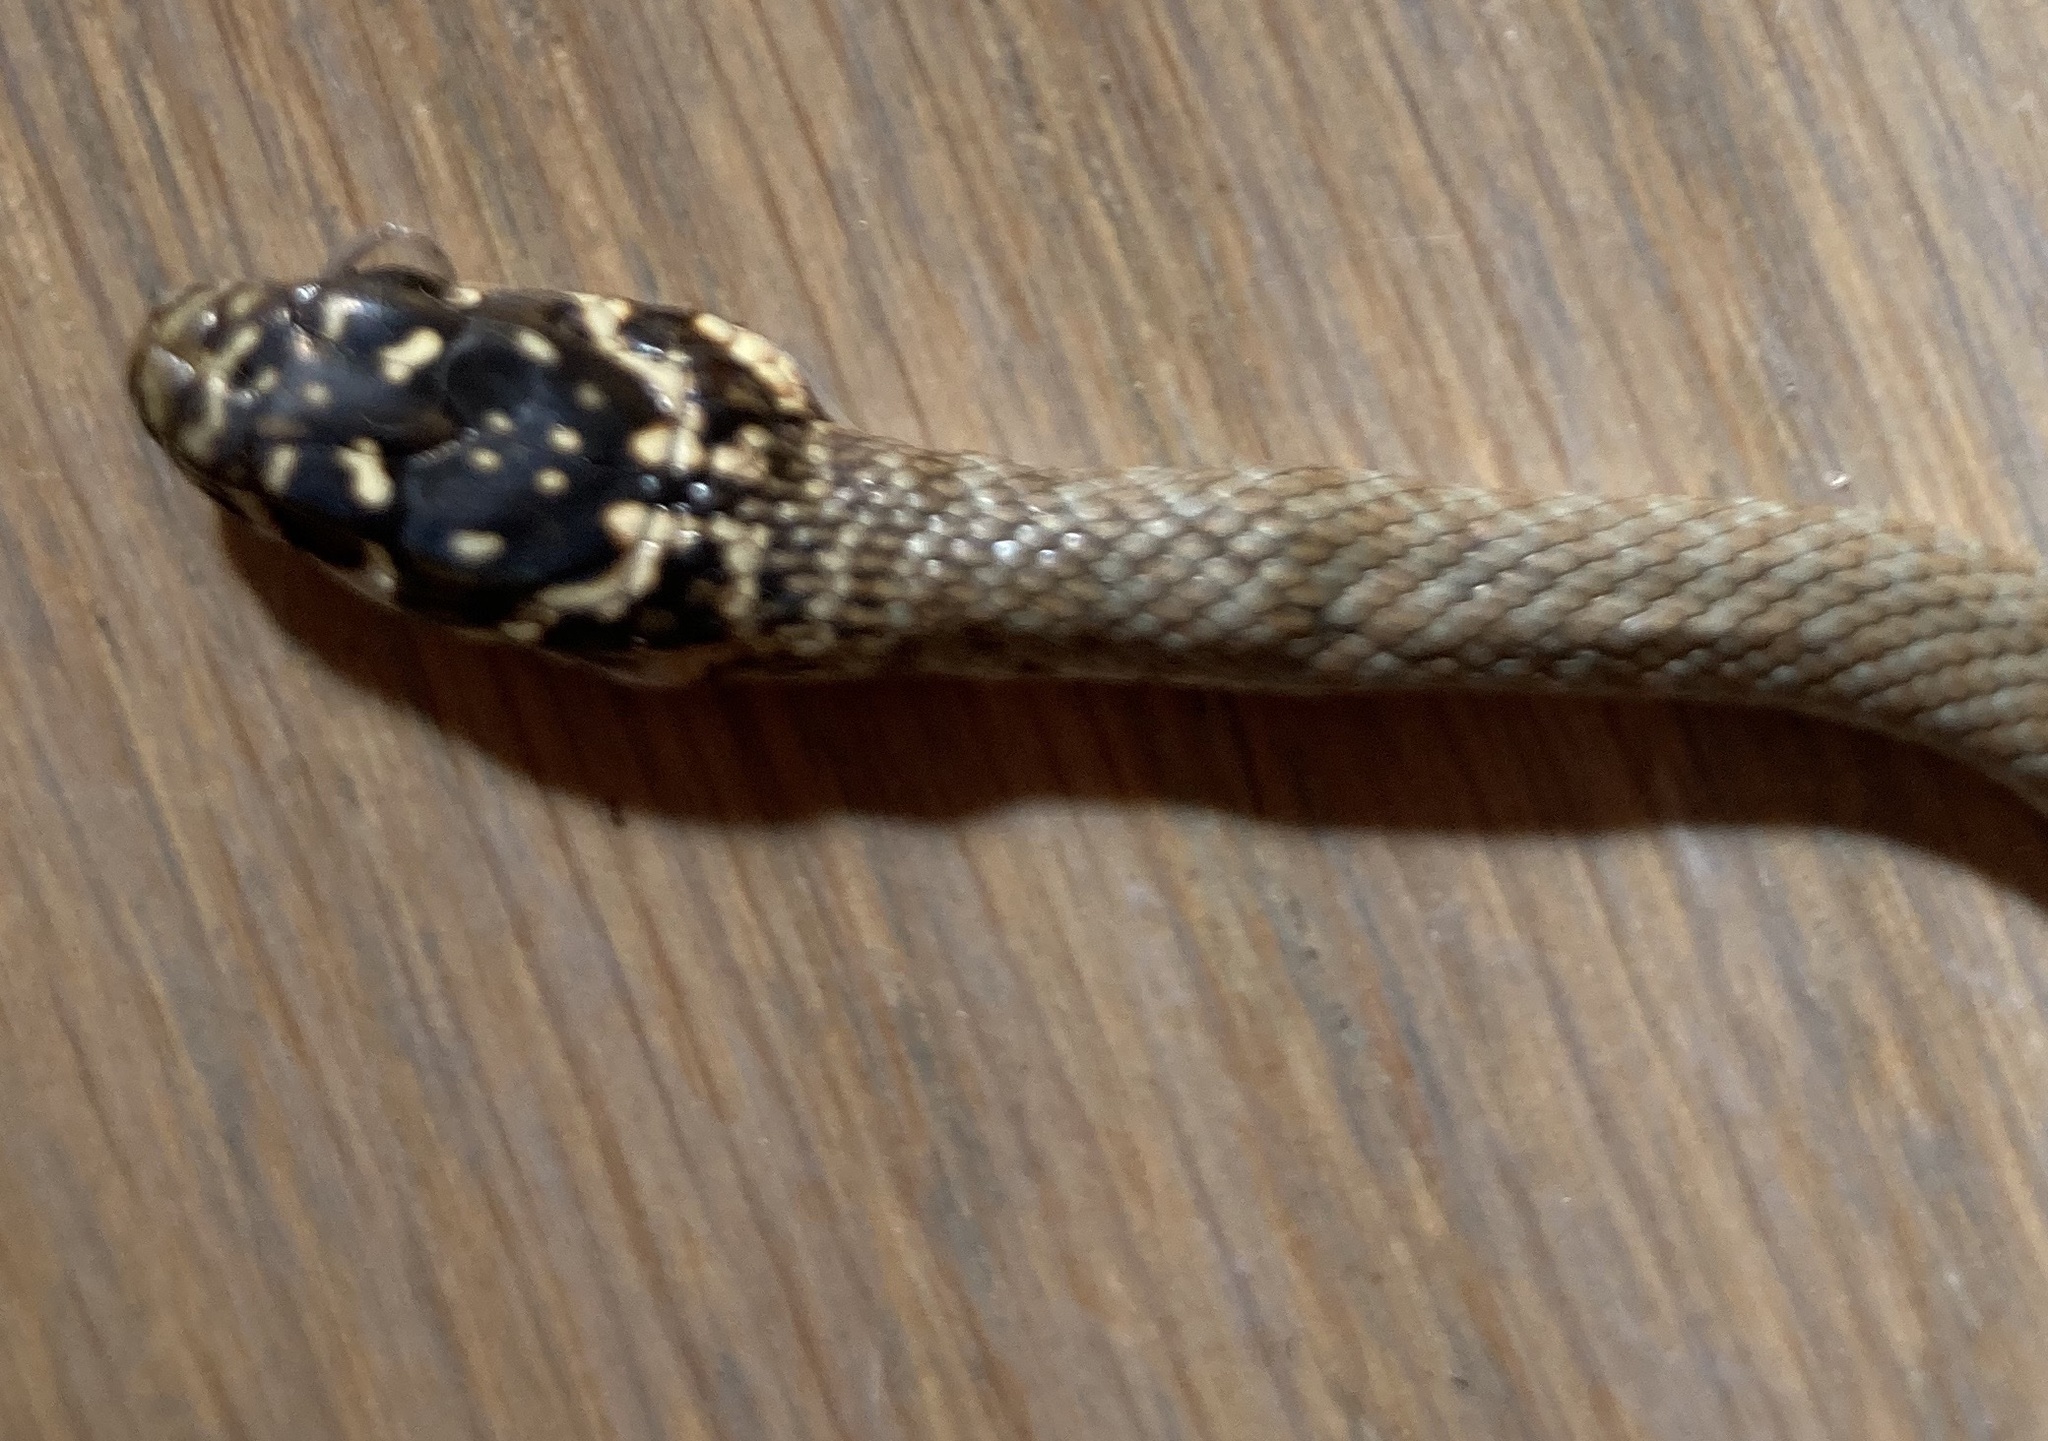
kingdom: Animalia
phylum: Chordata
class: Squamata
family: Colubridae
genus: Hierophis
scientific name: Hierophis viridiflavus
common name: Green whip snake
